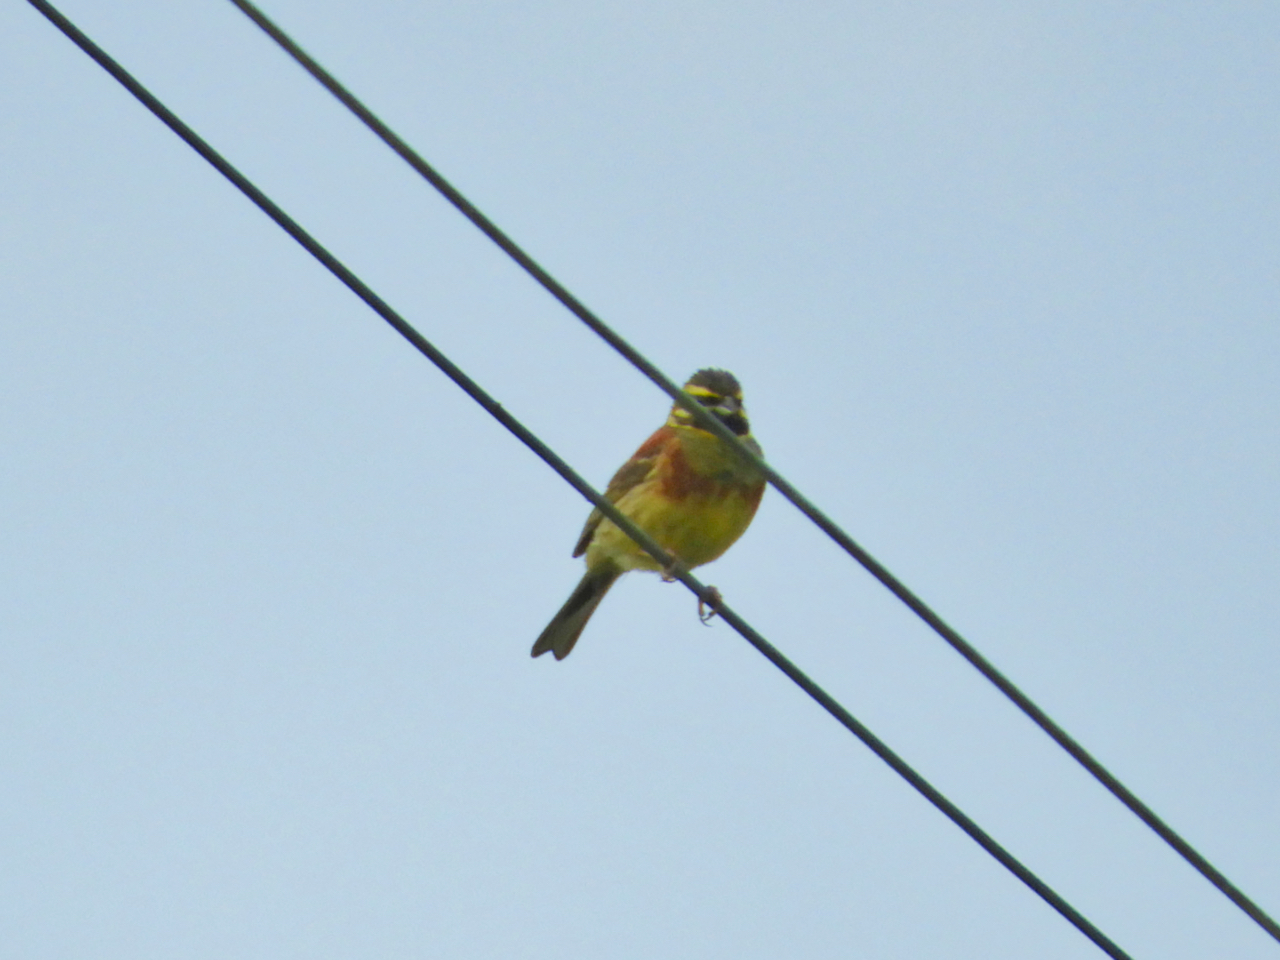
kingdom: Animalia
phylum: Chordata
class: Aves
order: Passeriformes
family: Emberizidae
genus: Emberiza
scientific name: Emberiza cirlus
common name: Cirl bunting
